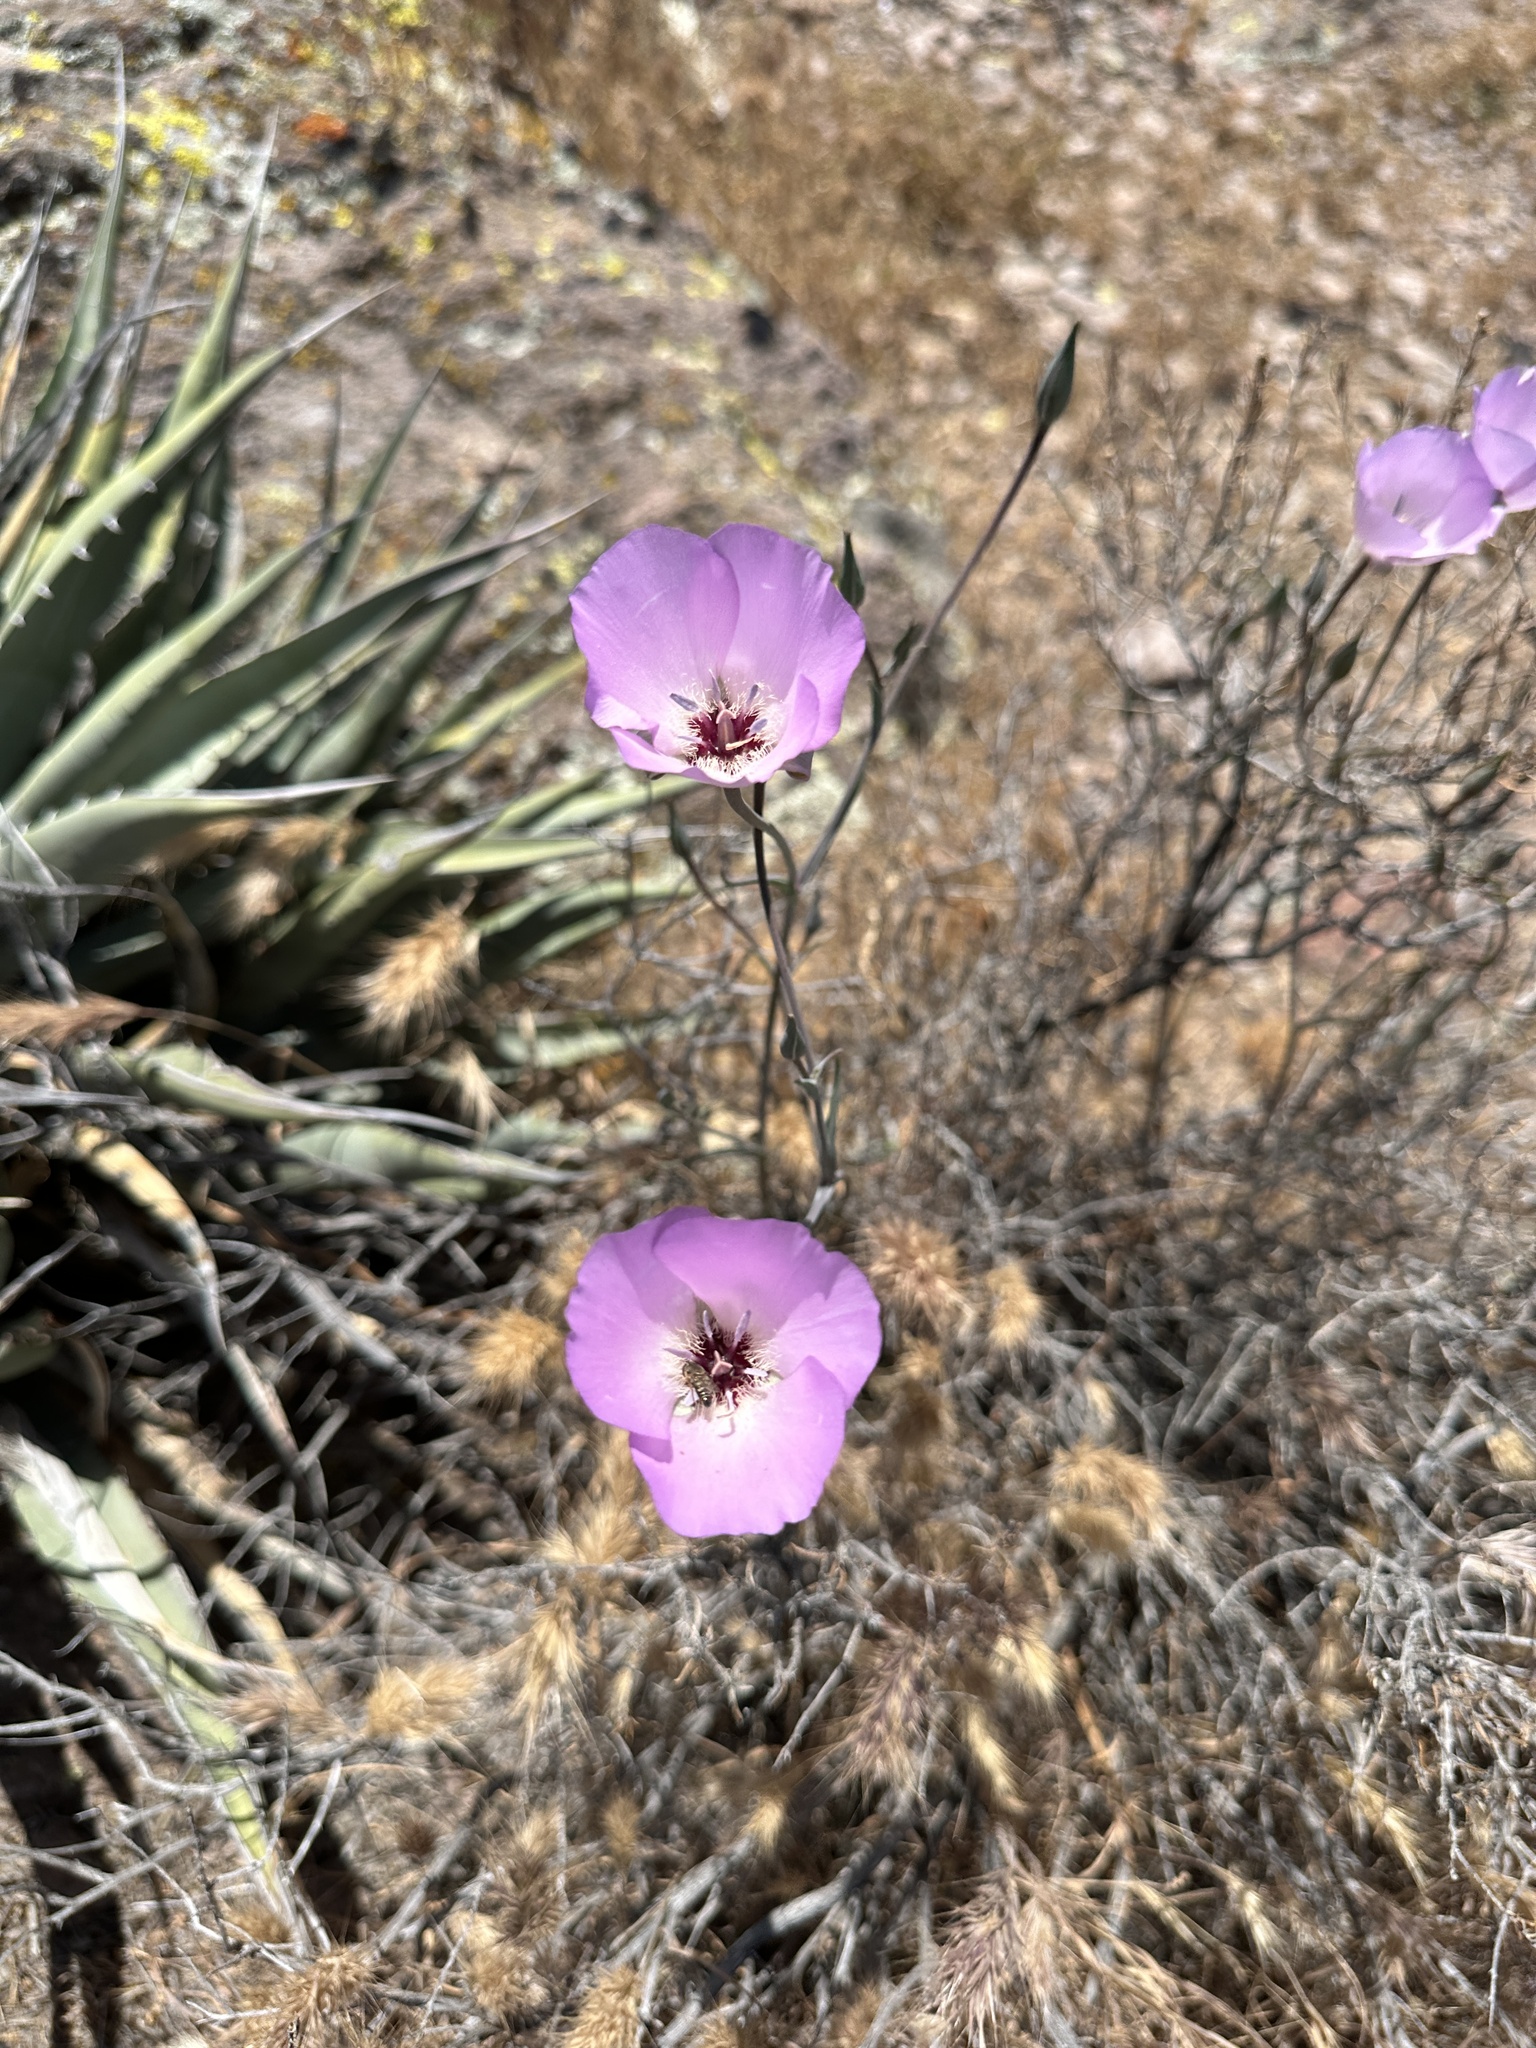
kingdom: Plantae
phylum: Tracheophyta
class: Liliopsida
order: Liliales
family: Liliaceae
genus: Calochortus
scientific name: Calochortus splendens
